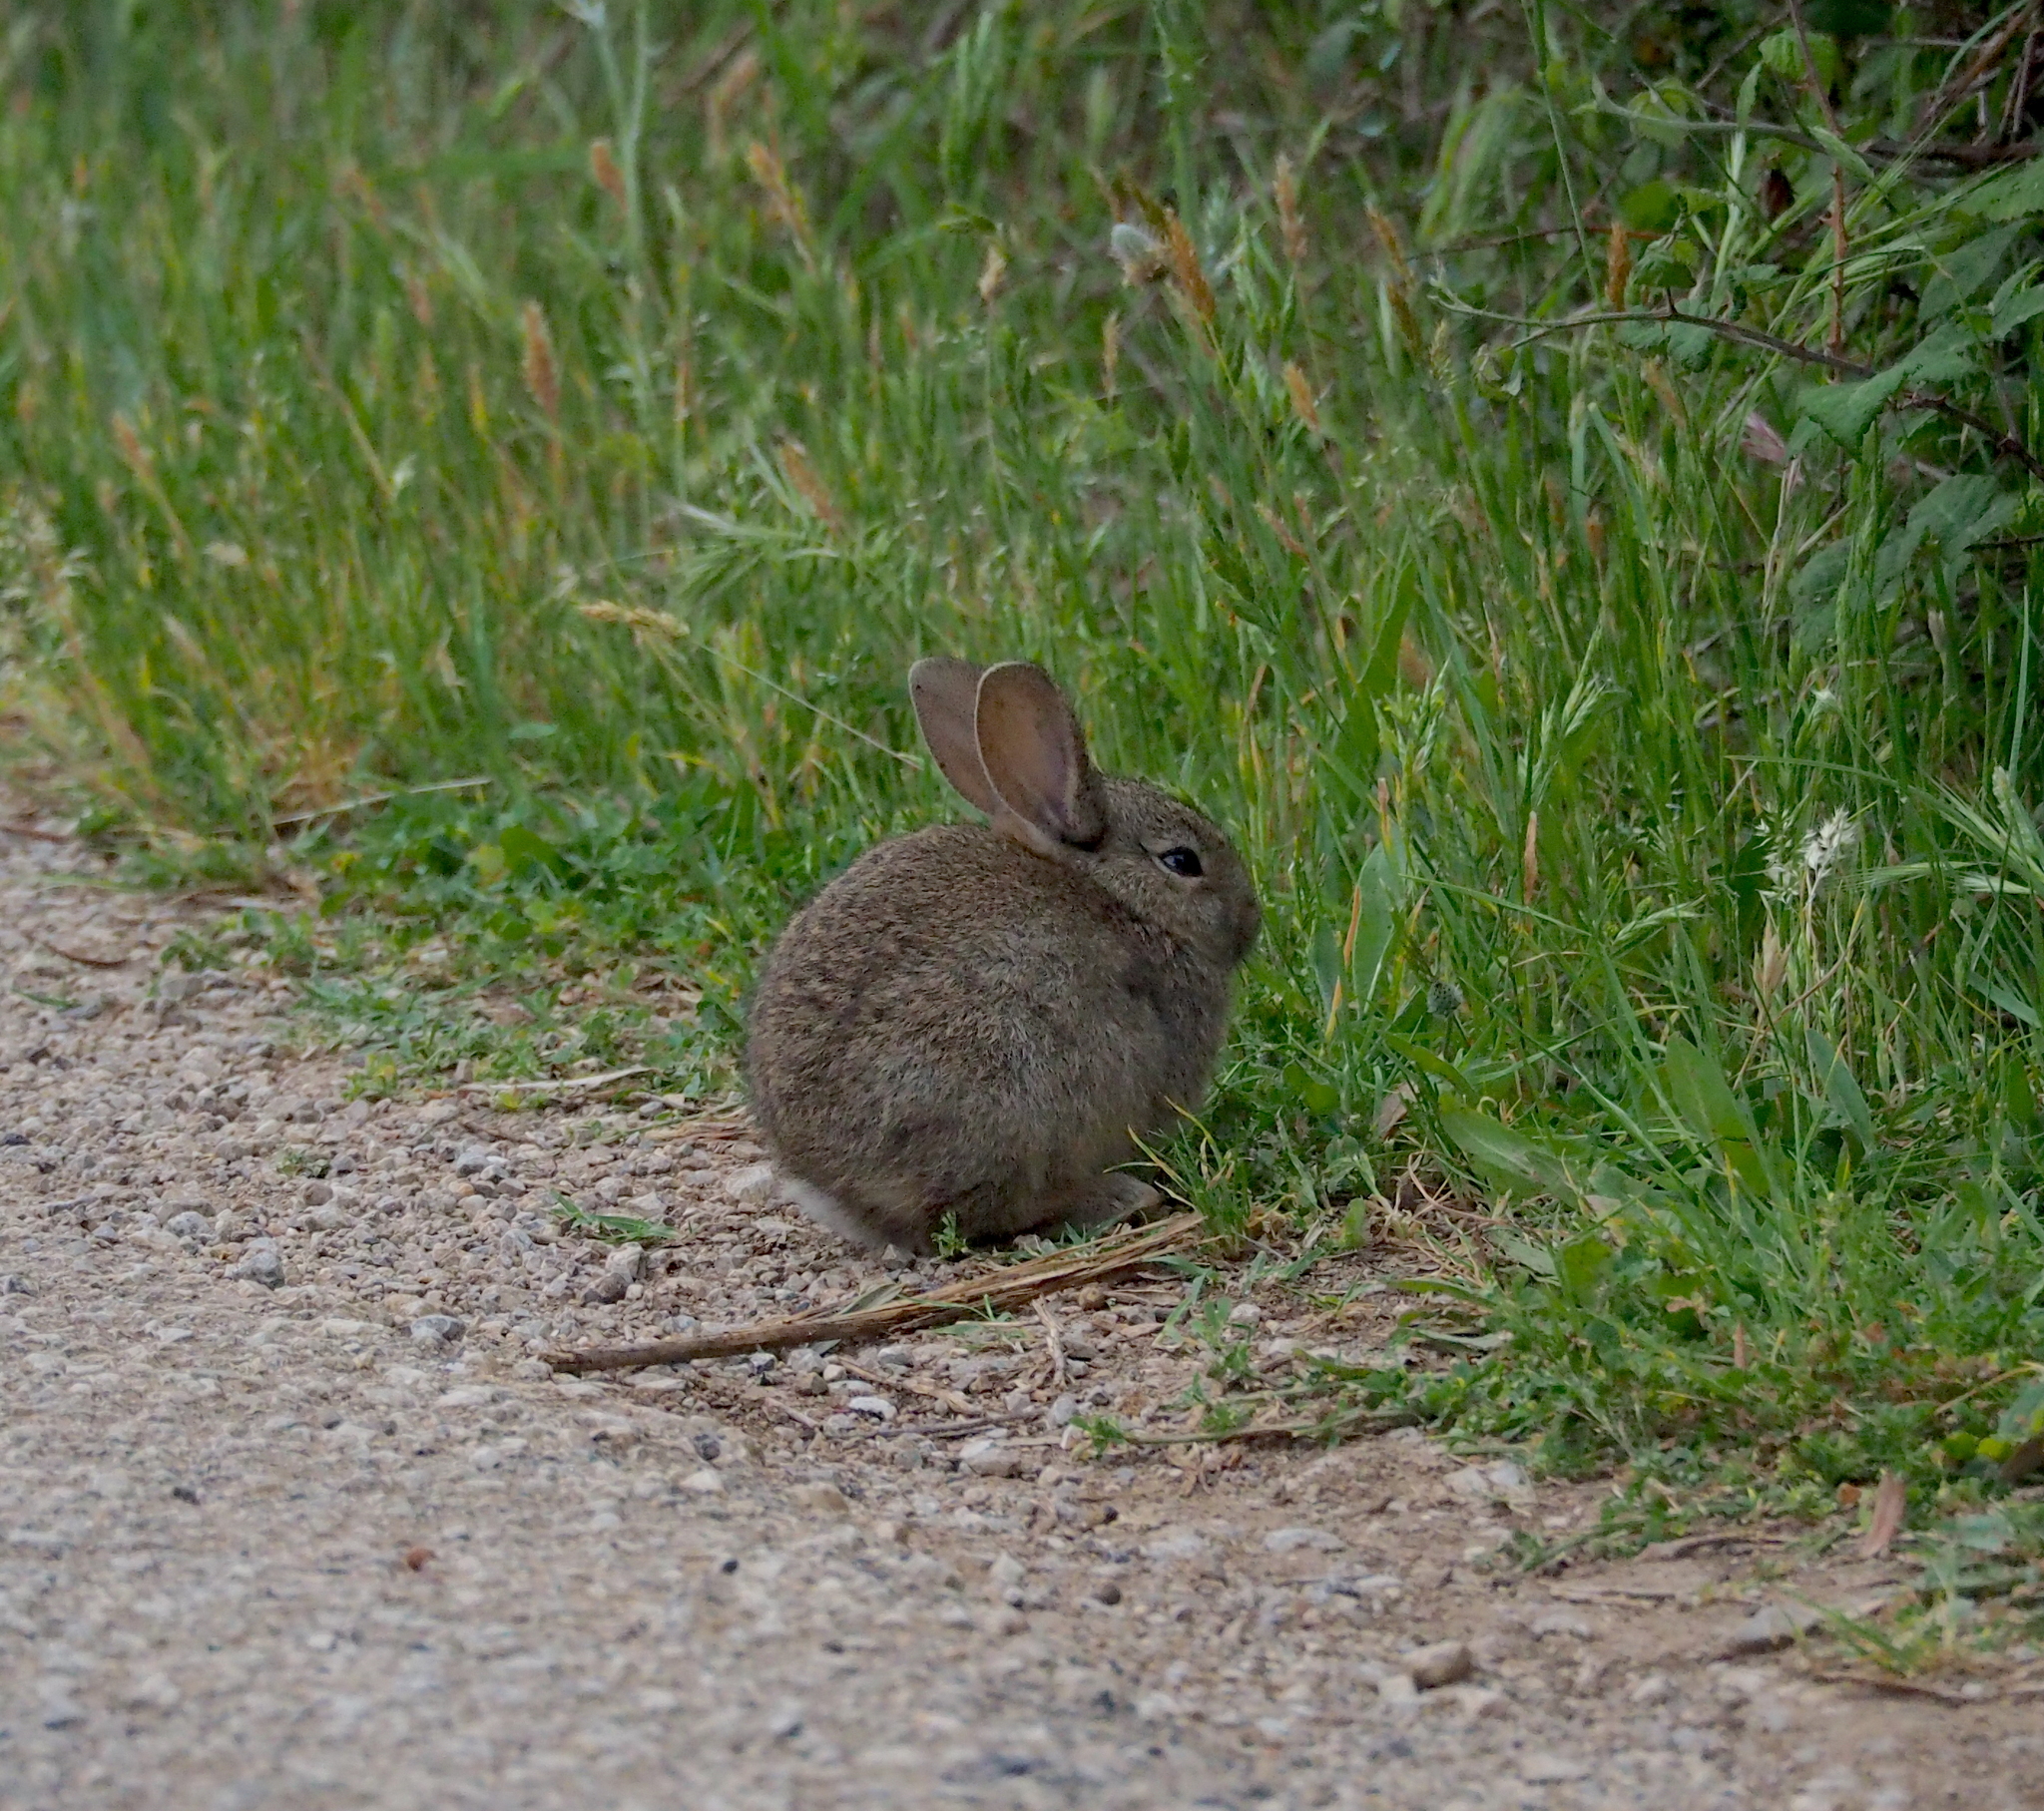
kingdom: Animalia
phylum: Chordata
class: Mammalia
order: Lagomorpha
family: Leporidae
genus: Oryctolagus
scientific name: Oryctolagus cuniculus
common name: European rabbit
